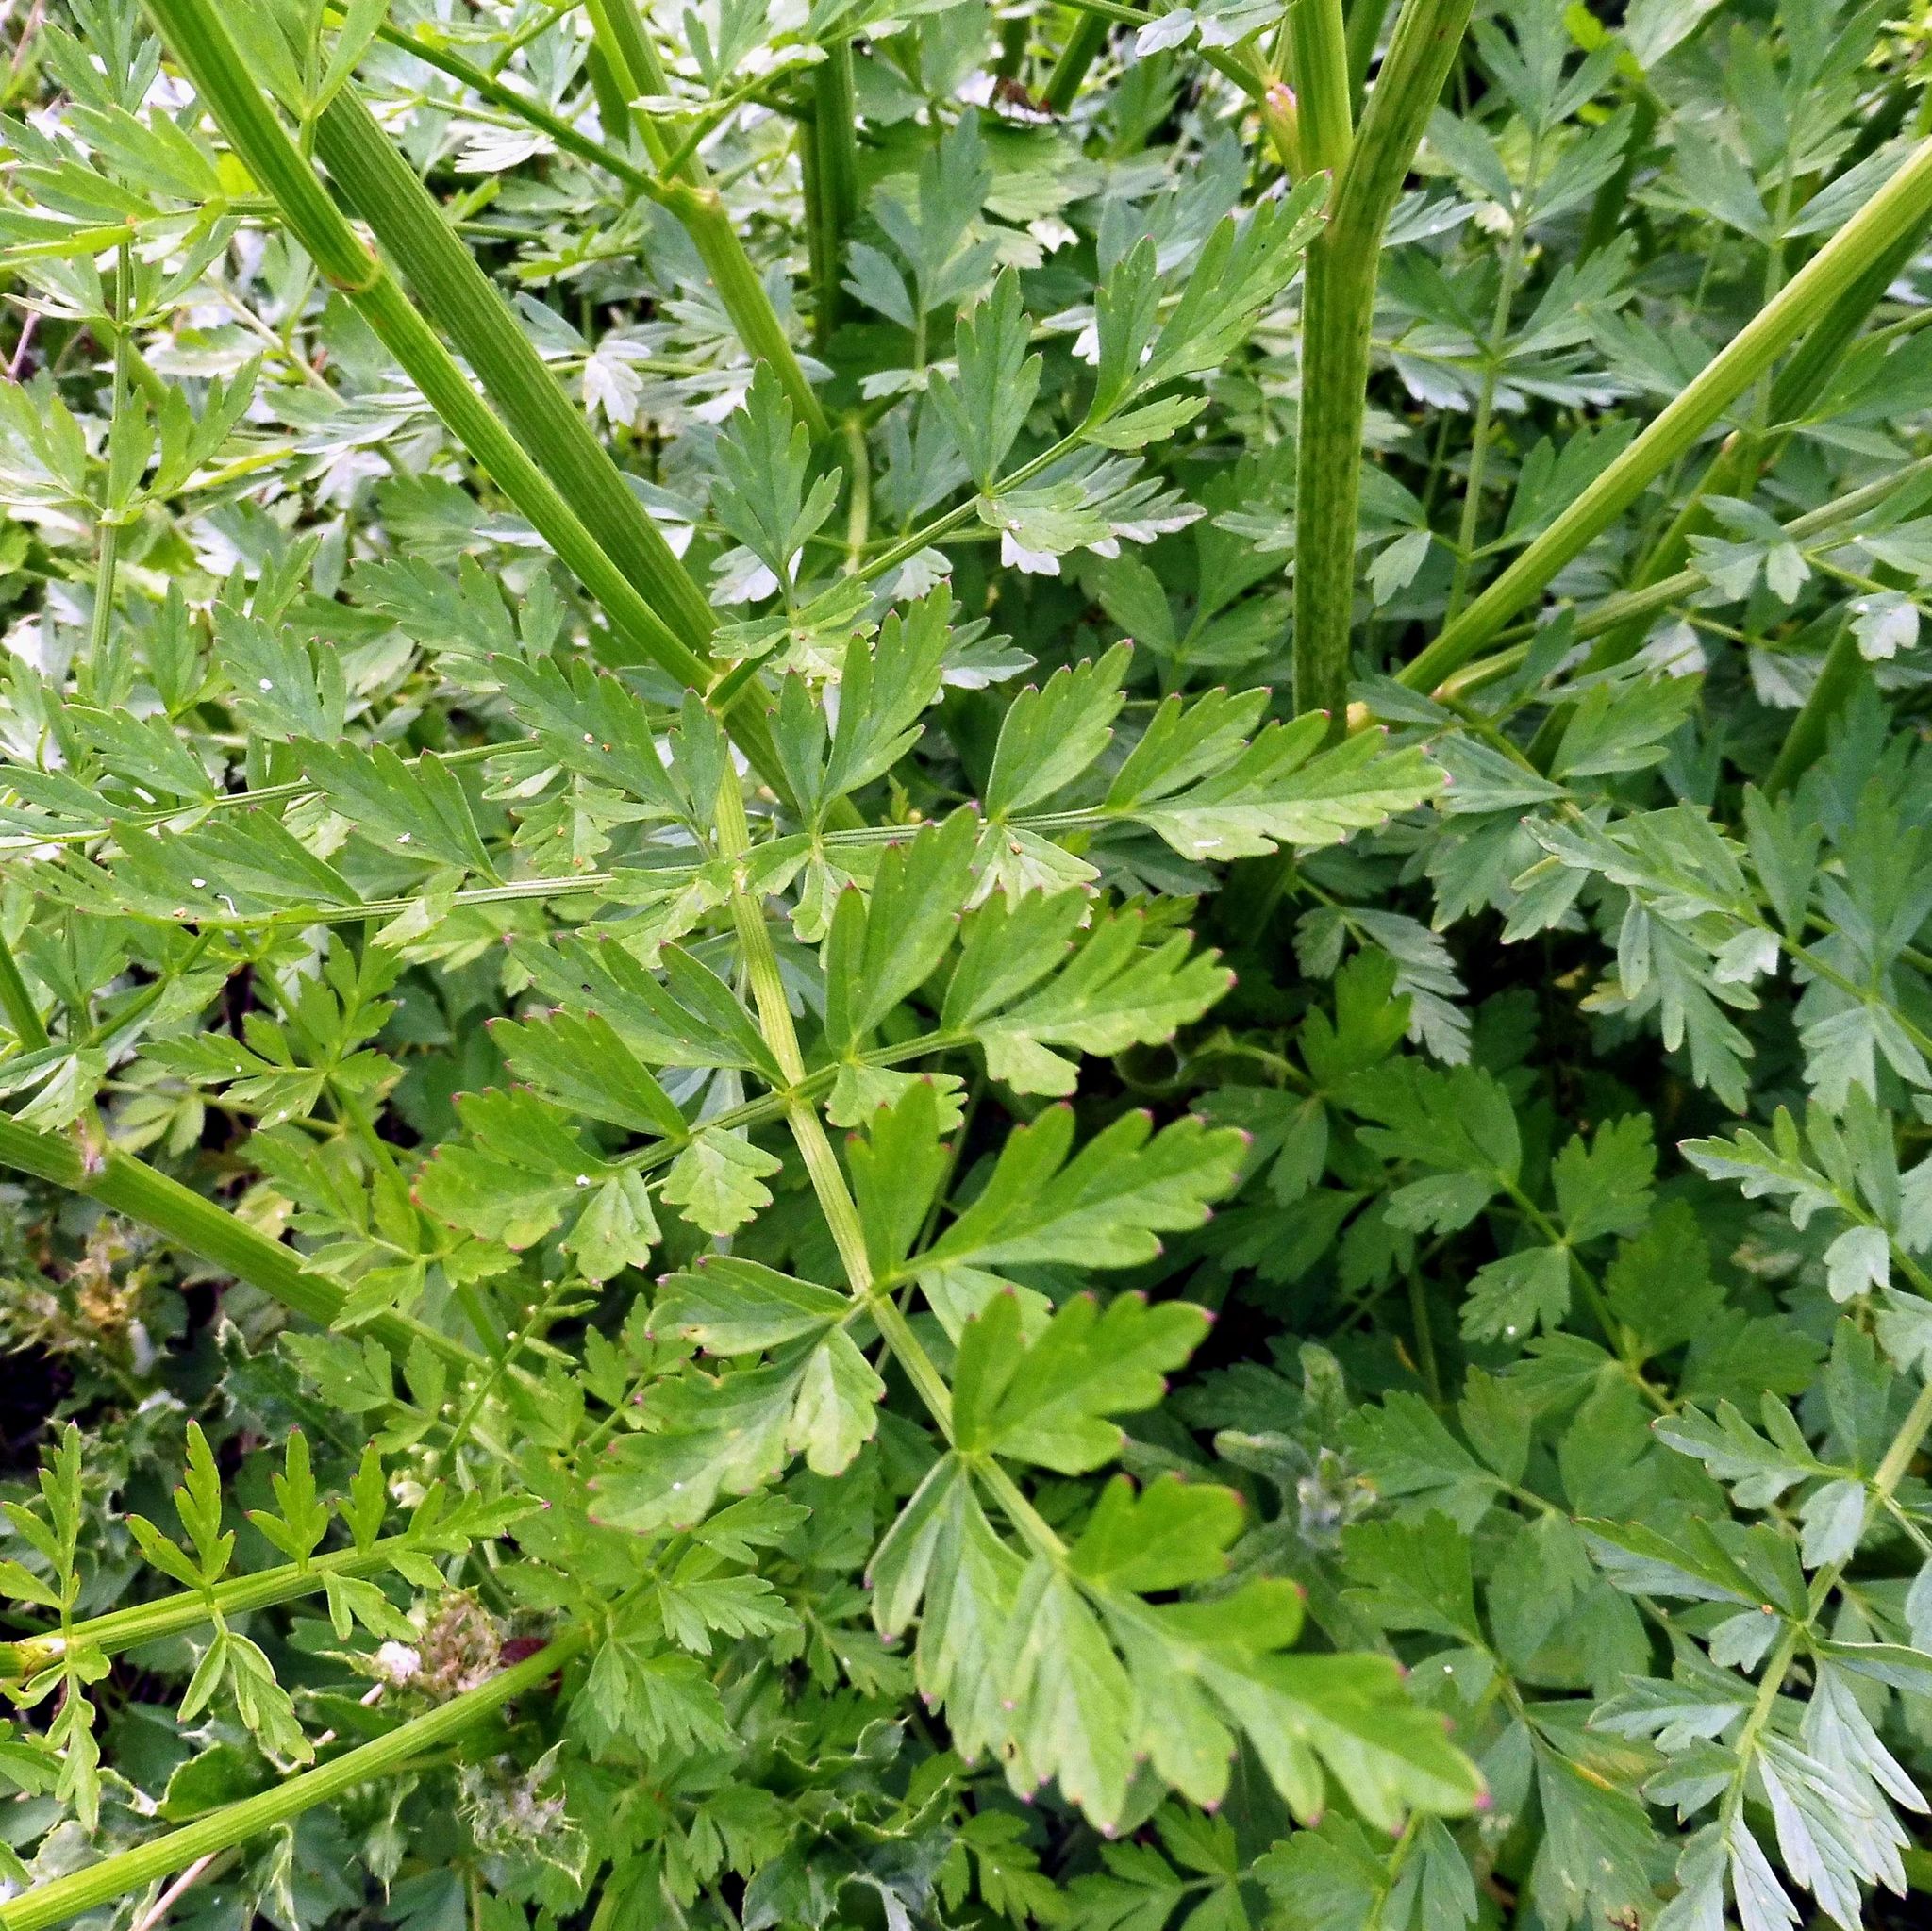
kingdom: Plantae
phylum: Tracheophyta
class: Magnoliopsida
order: Apiales
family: Apiaceae
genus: Oenanthe
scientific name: Oenanthe crocata
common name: Hemlock water-dropwort
